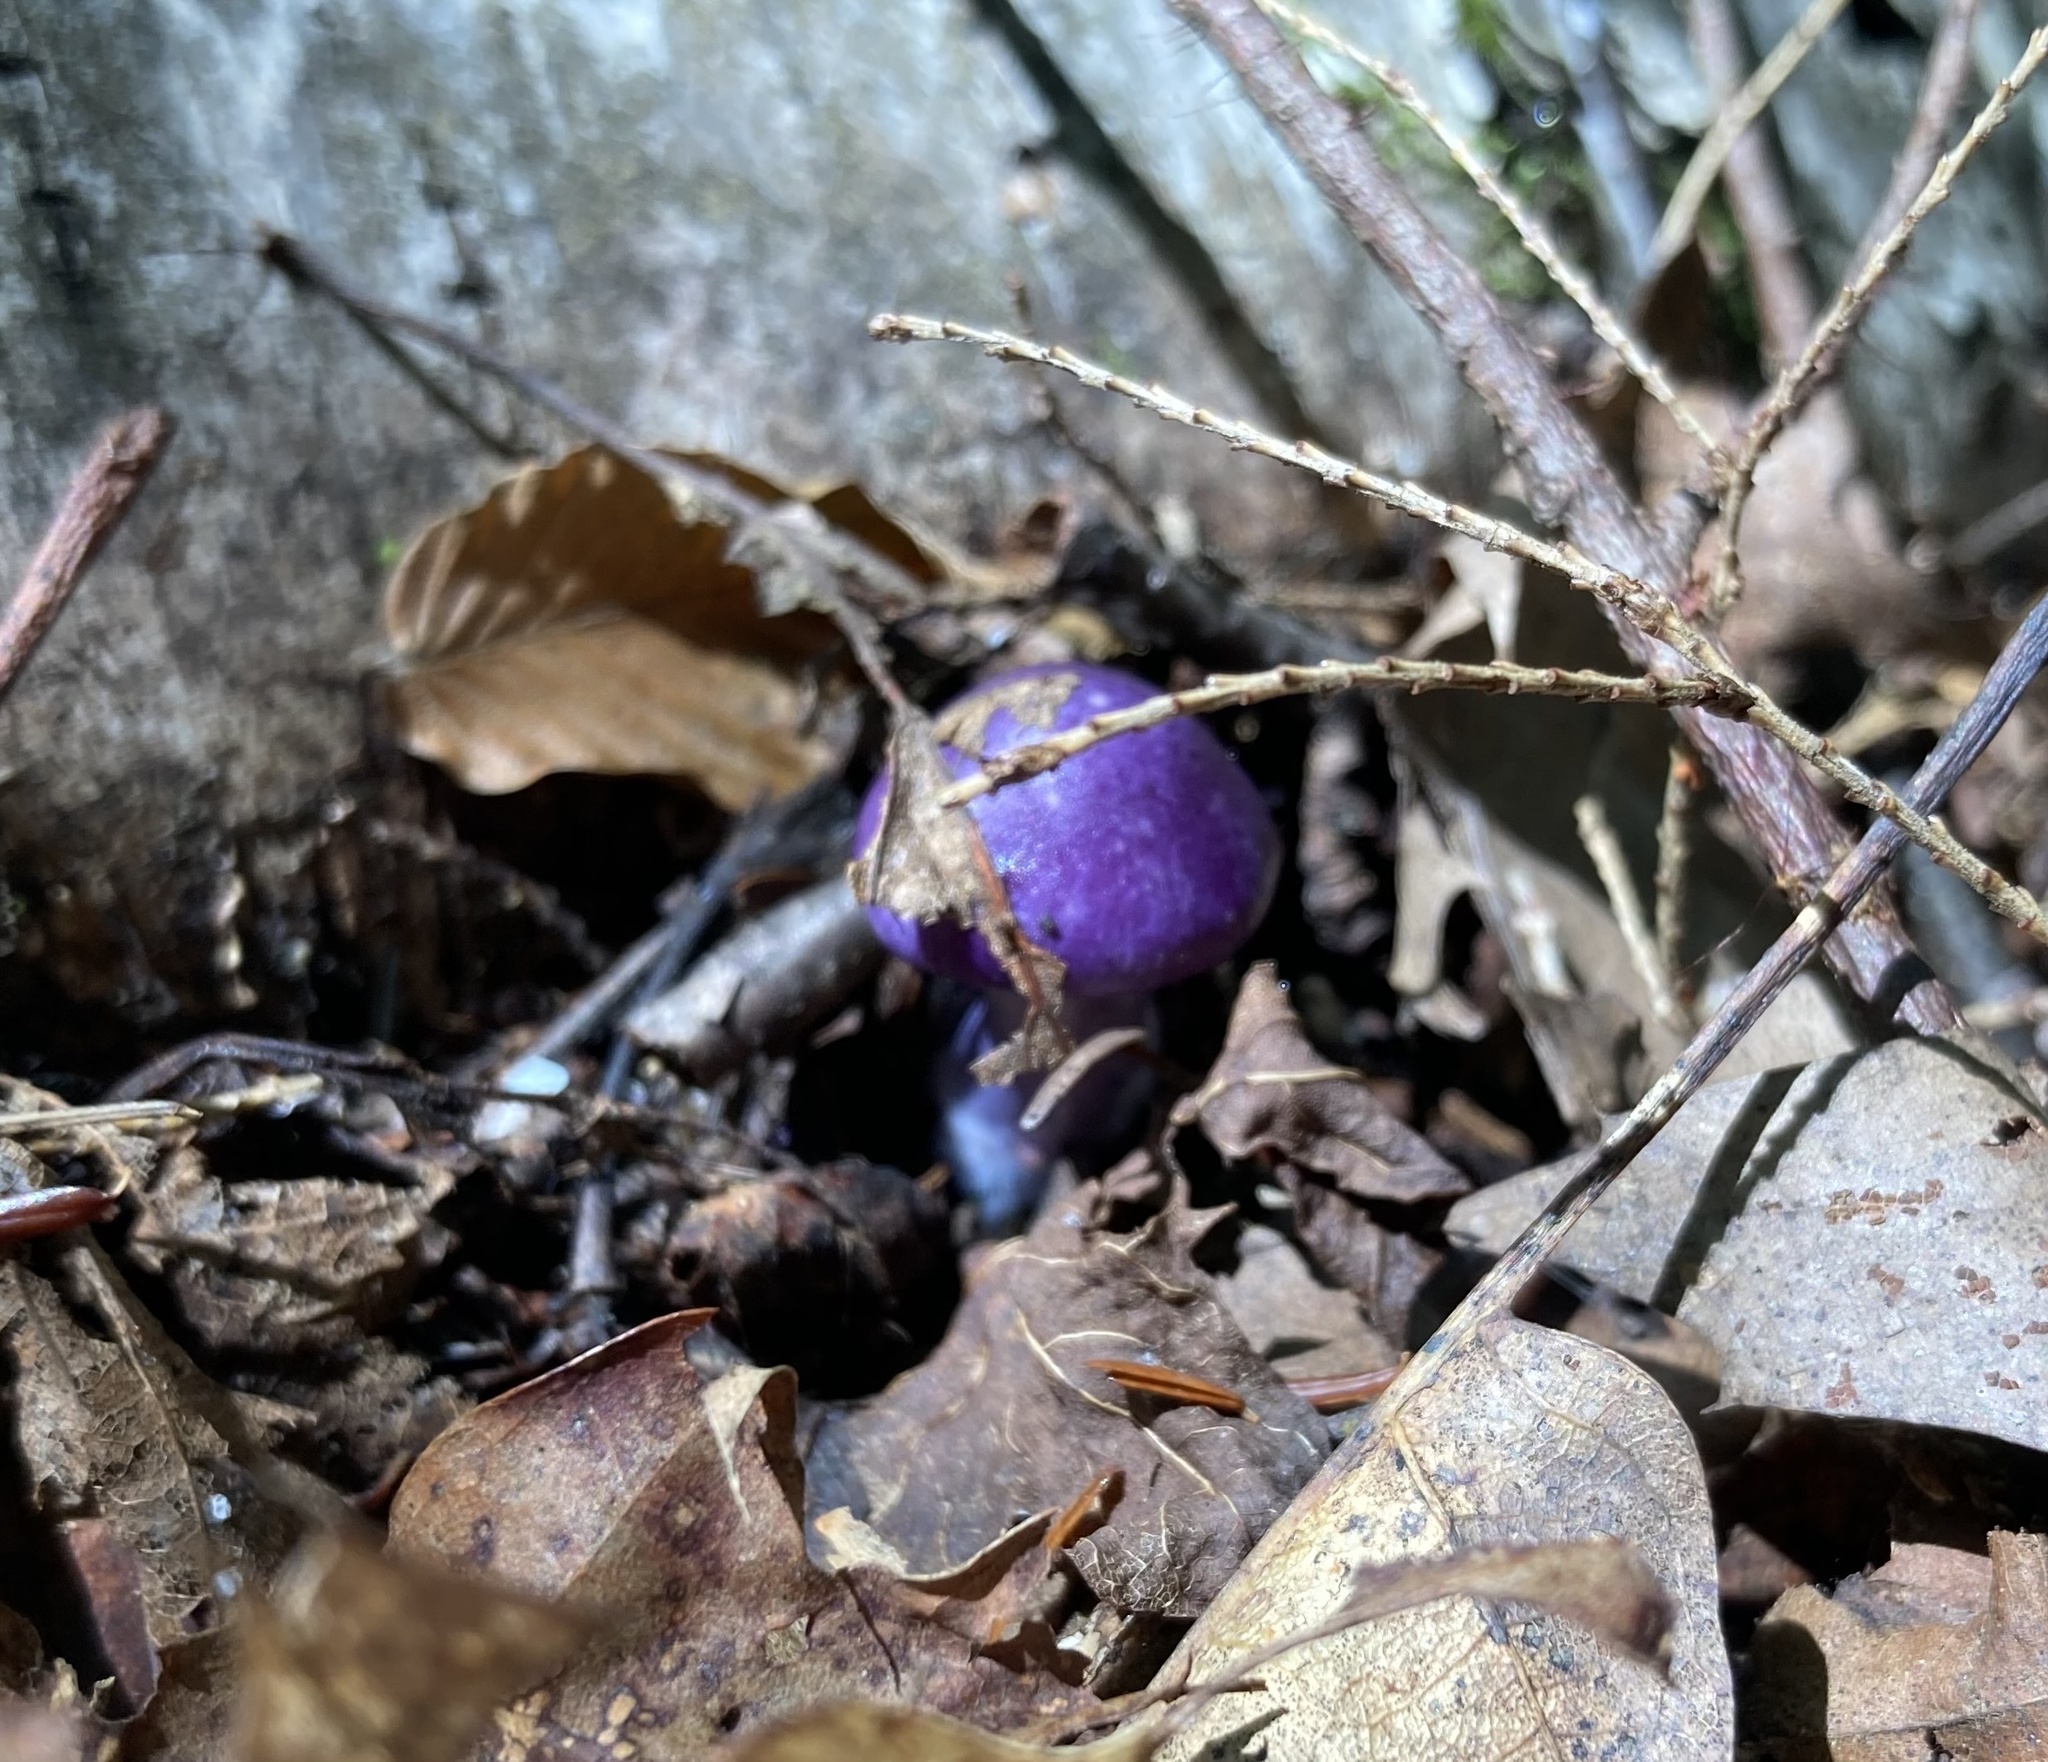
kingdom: Fungi
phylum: Basidiomycota
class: Agaricomycetes
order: Agaricales
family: Cortinariaceae
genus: Cortinarius
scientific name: Cortinarius iodes
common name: Viscid violet cort
